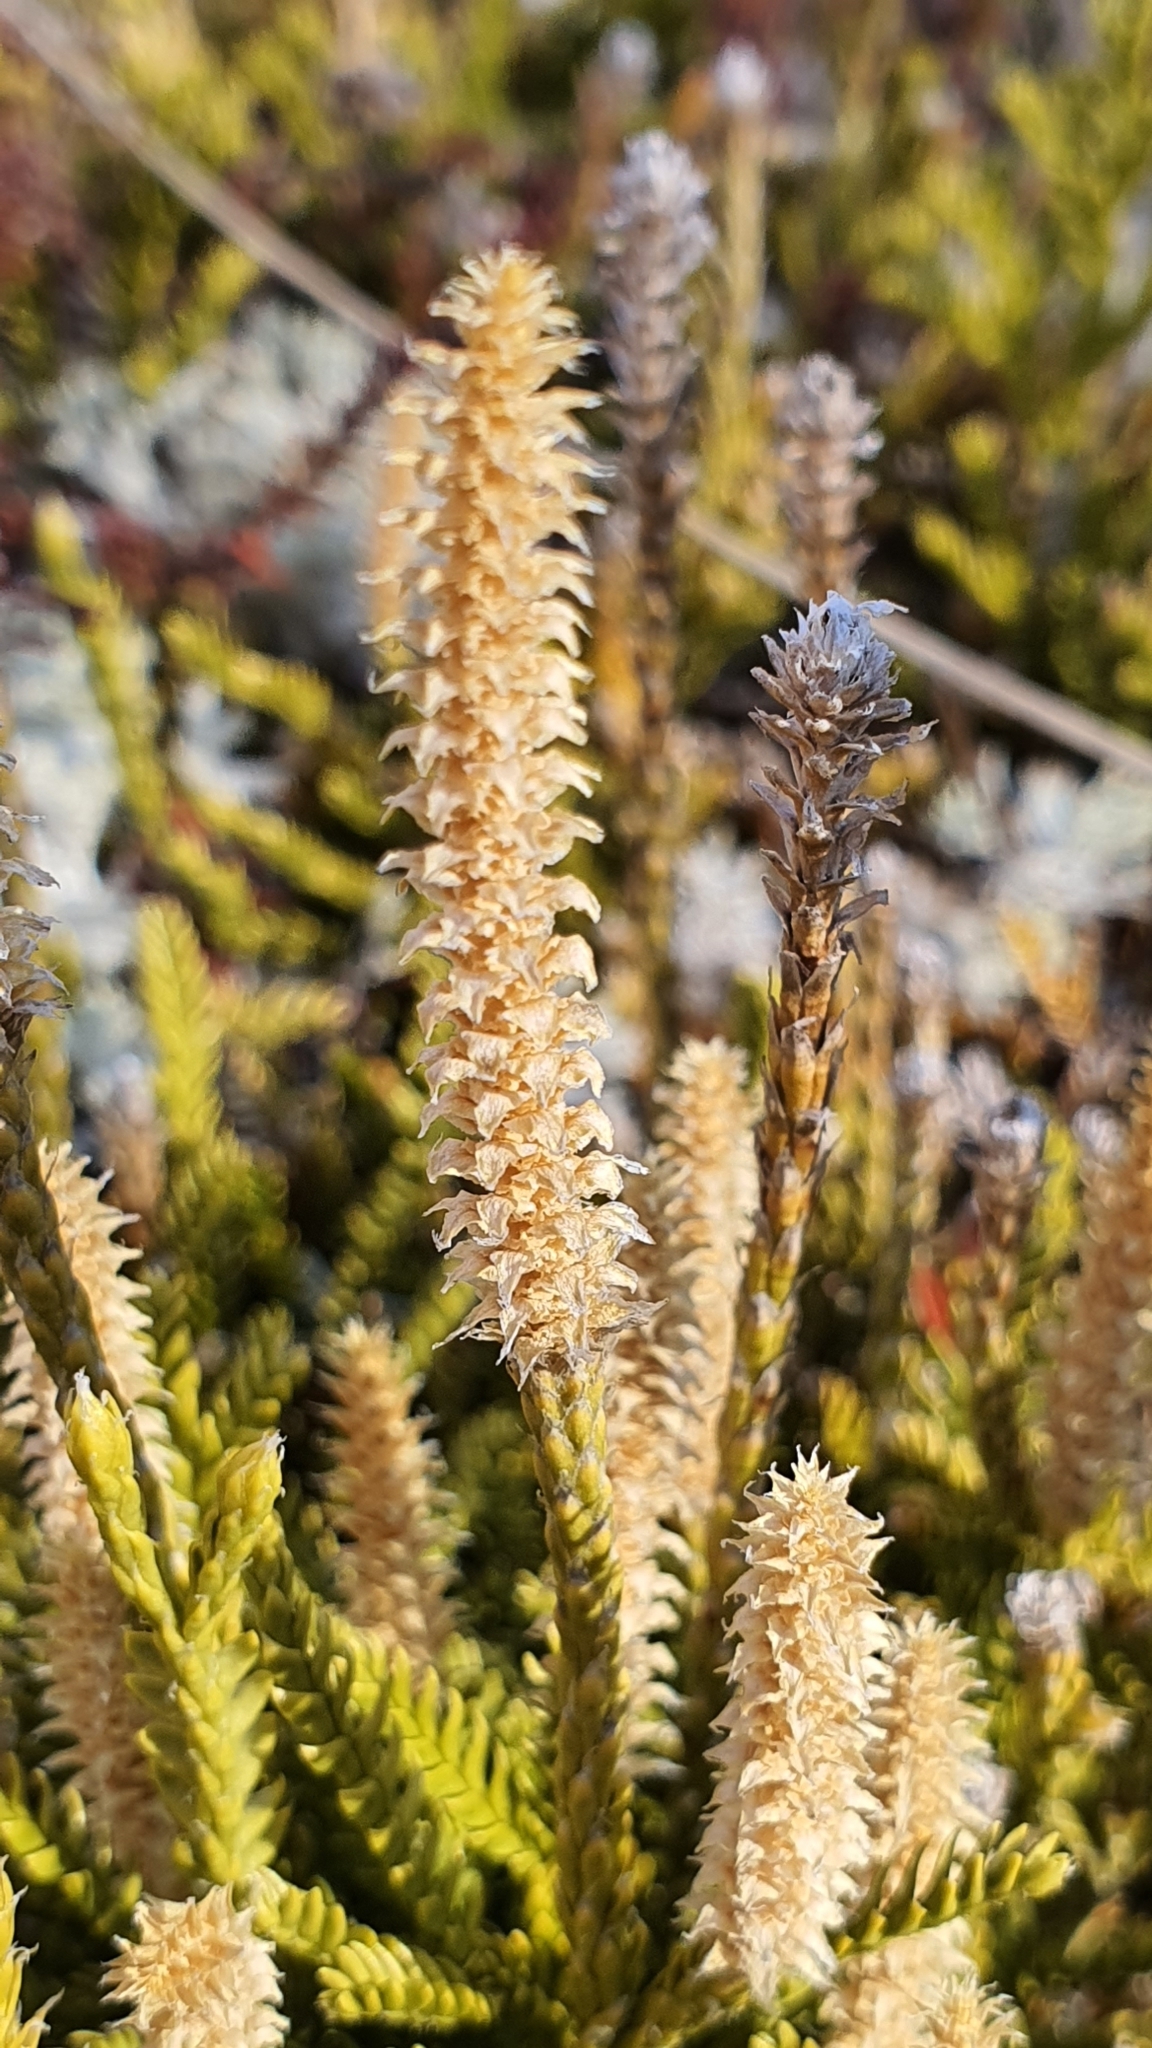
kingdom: Plantae
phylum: Tracheophyta
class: Lycopodiopsida
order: Lycopodiales
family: Lycopodiaceae
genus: Diphasium
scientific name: Diphasium scariosum
